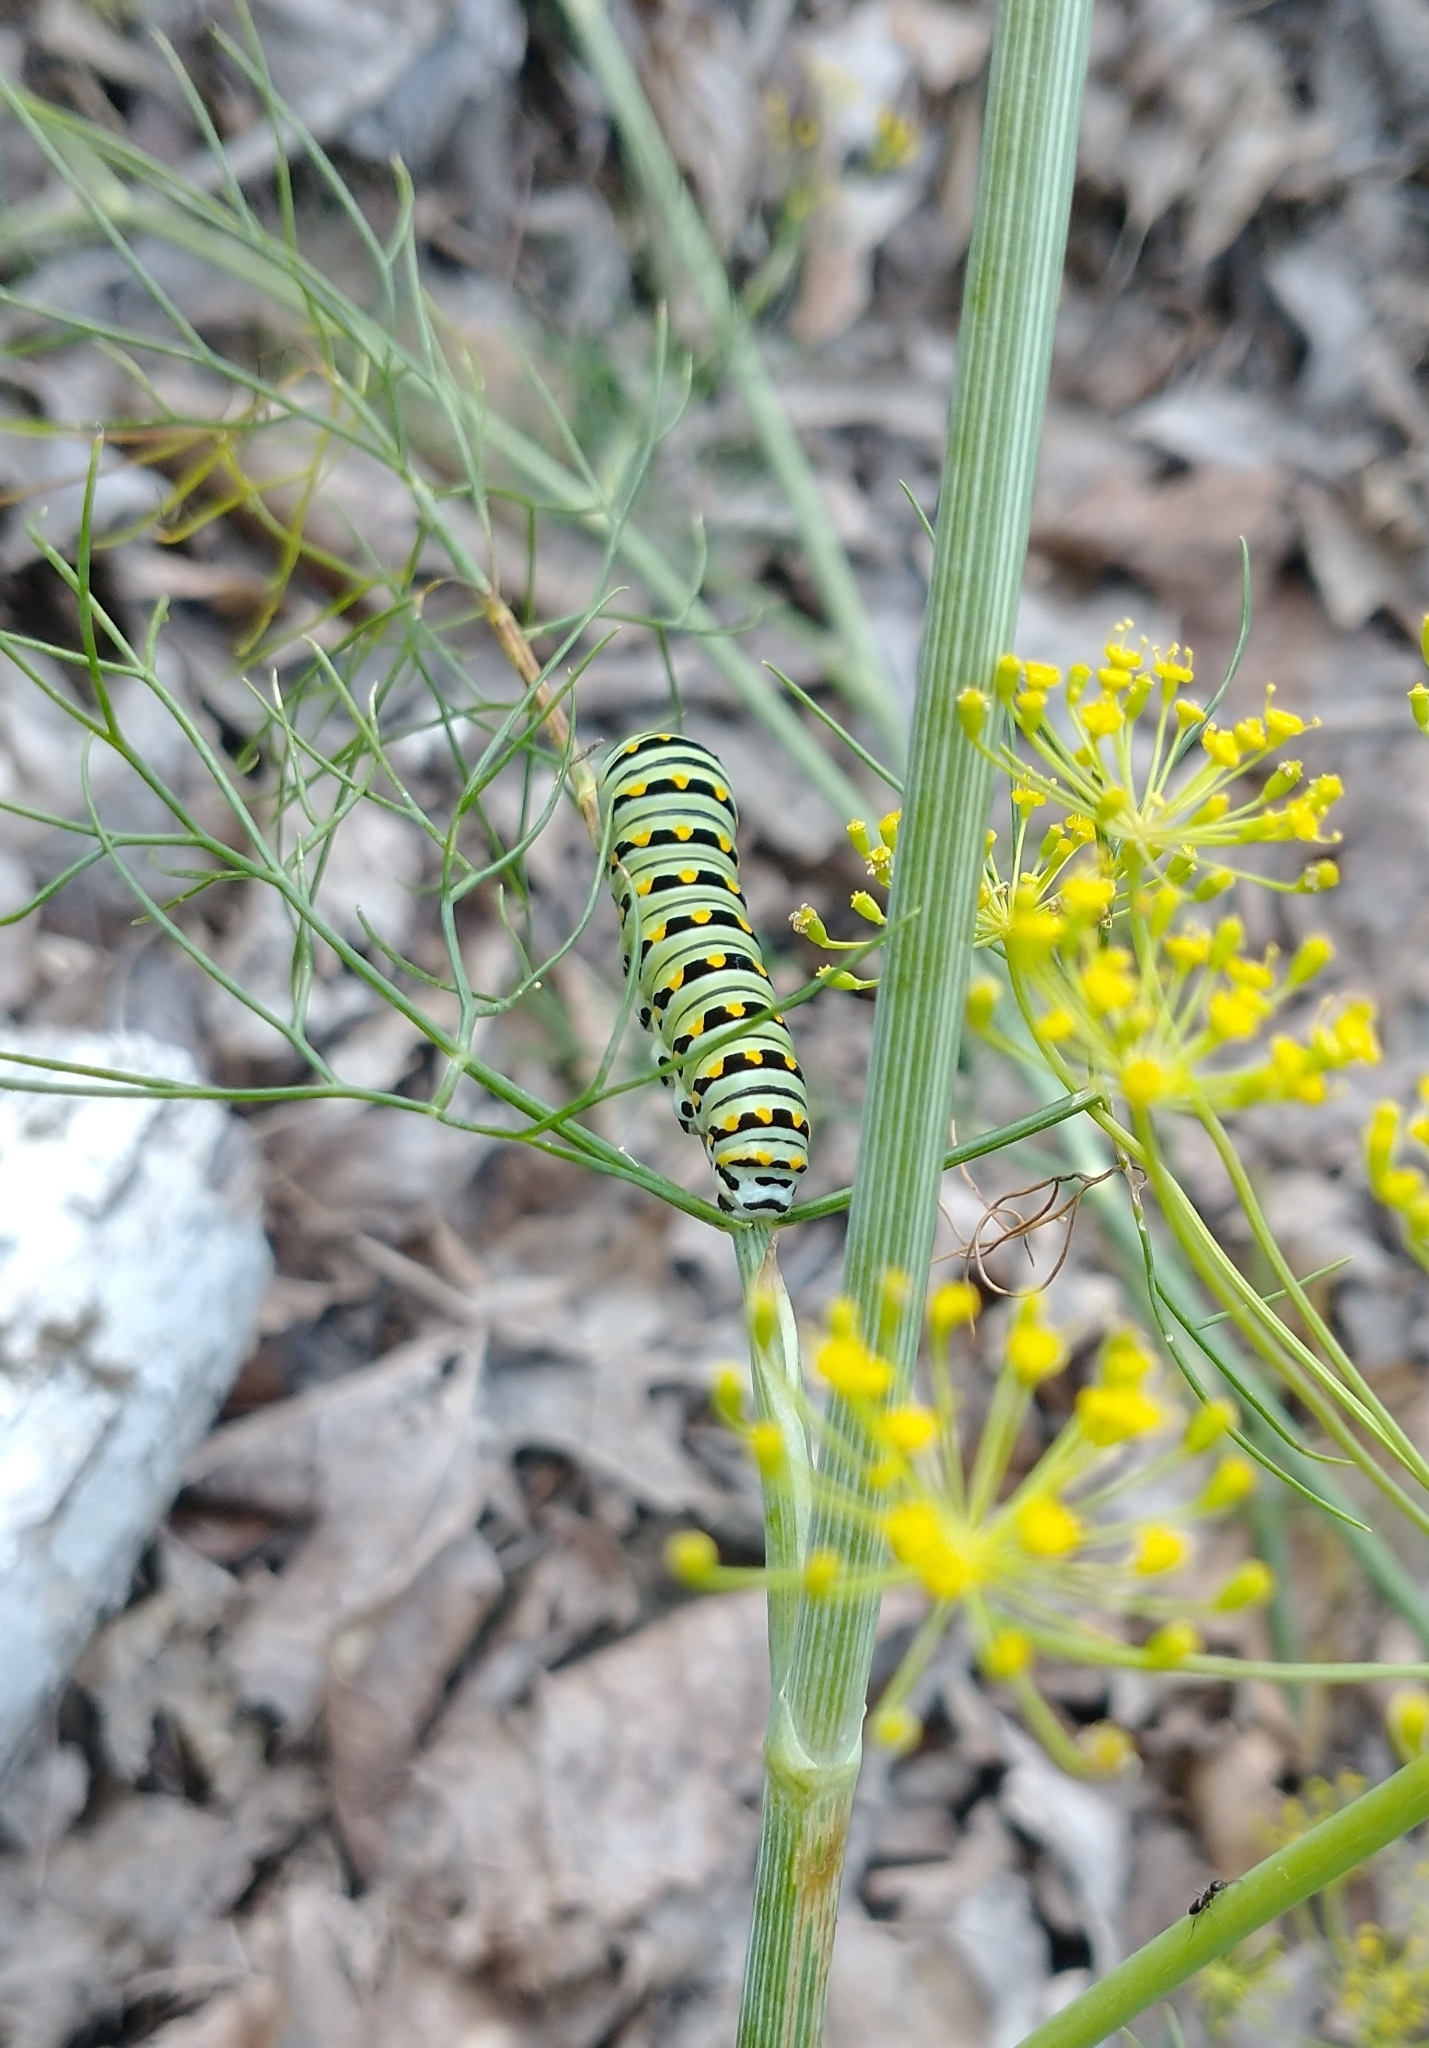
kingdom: Animalia
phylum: Arthropoda
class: Insecta
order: Lepidoptera
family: Papilionidae
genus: Papilio
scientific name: Papilio polyxenes
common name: Black swallowtail
